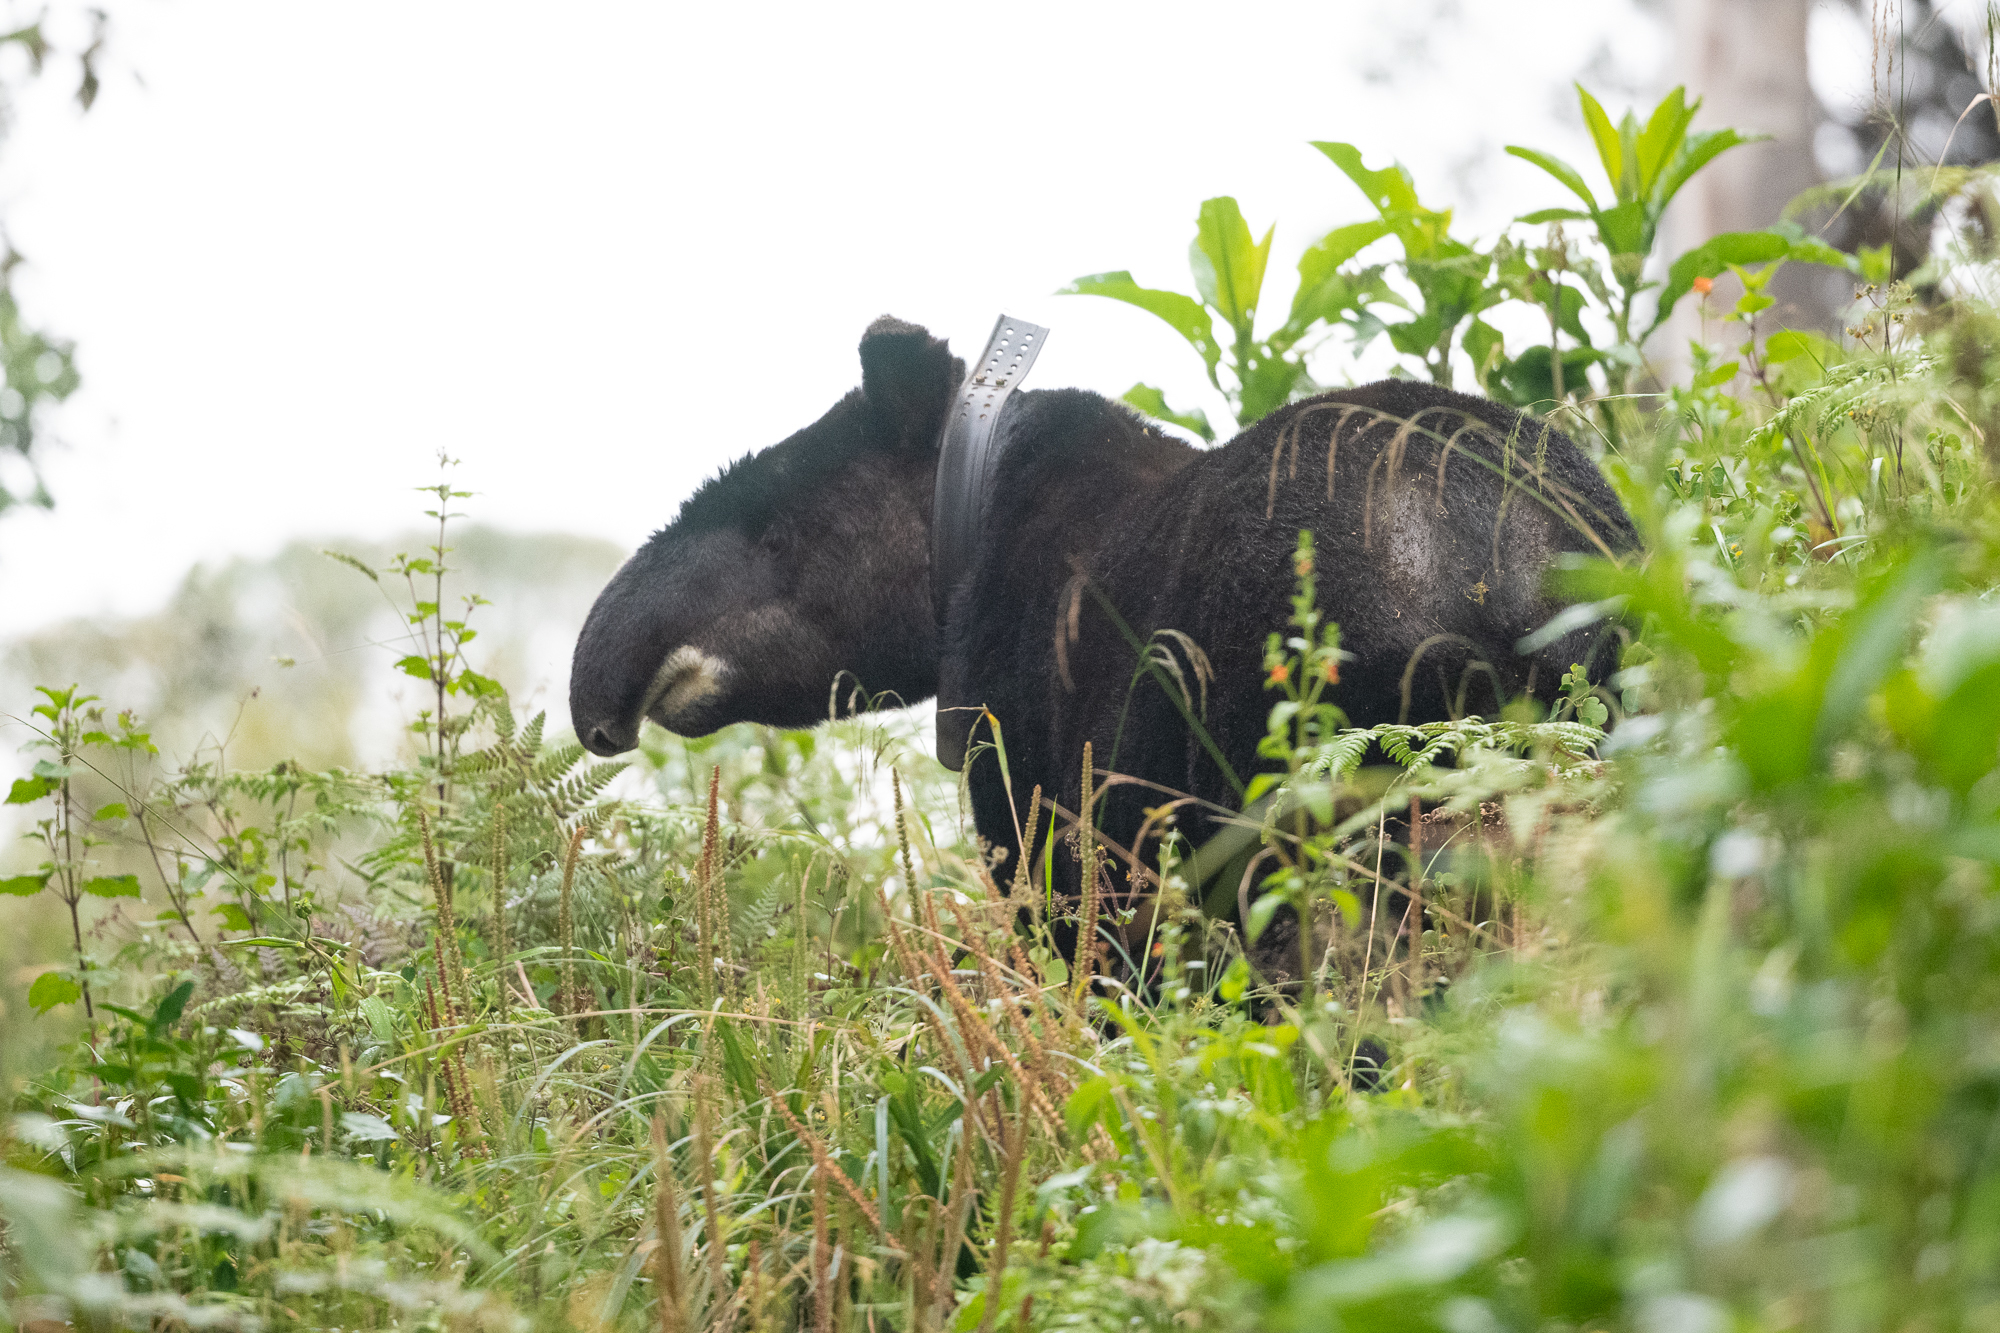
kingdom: Animalia
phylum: Chordata
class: Mammalia
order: Perissodactyla
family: Tapiridae
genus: Tapirus
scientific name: Tapirus pinchaque
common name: Mountain tapir
